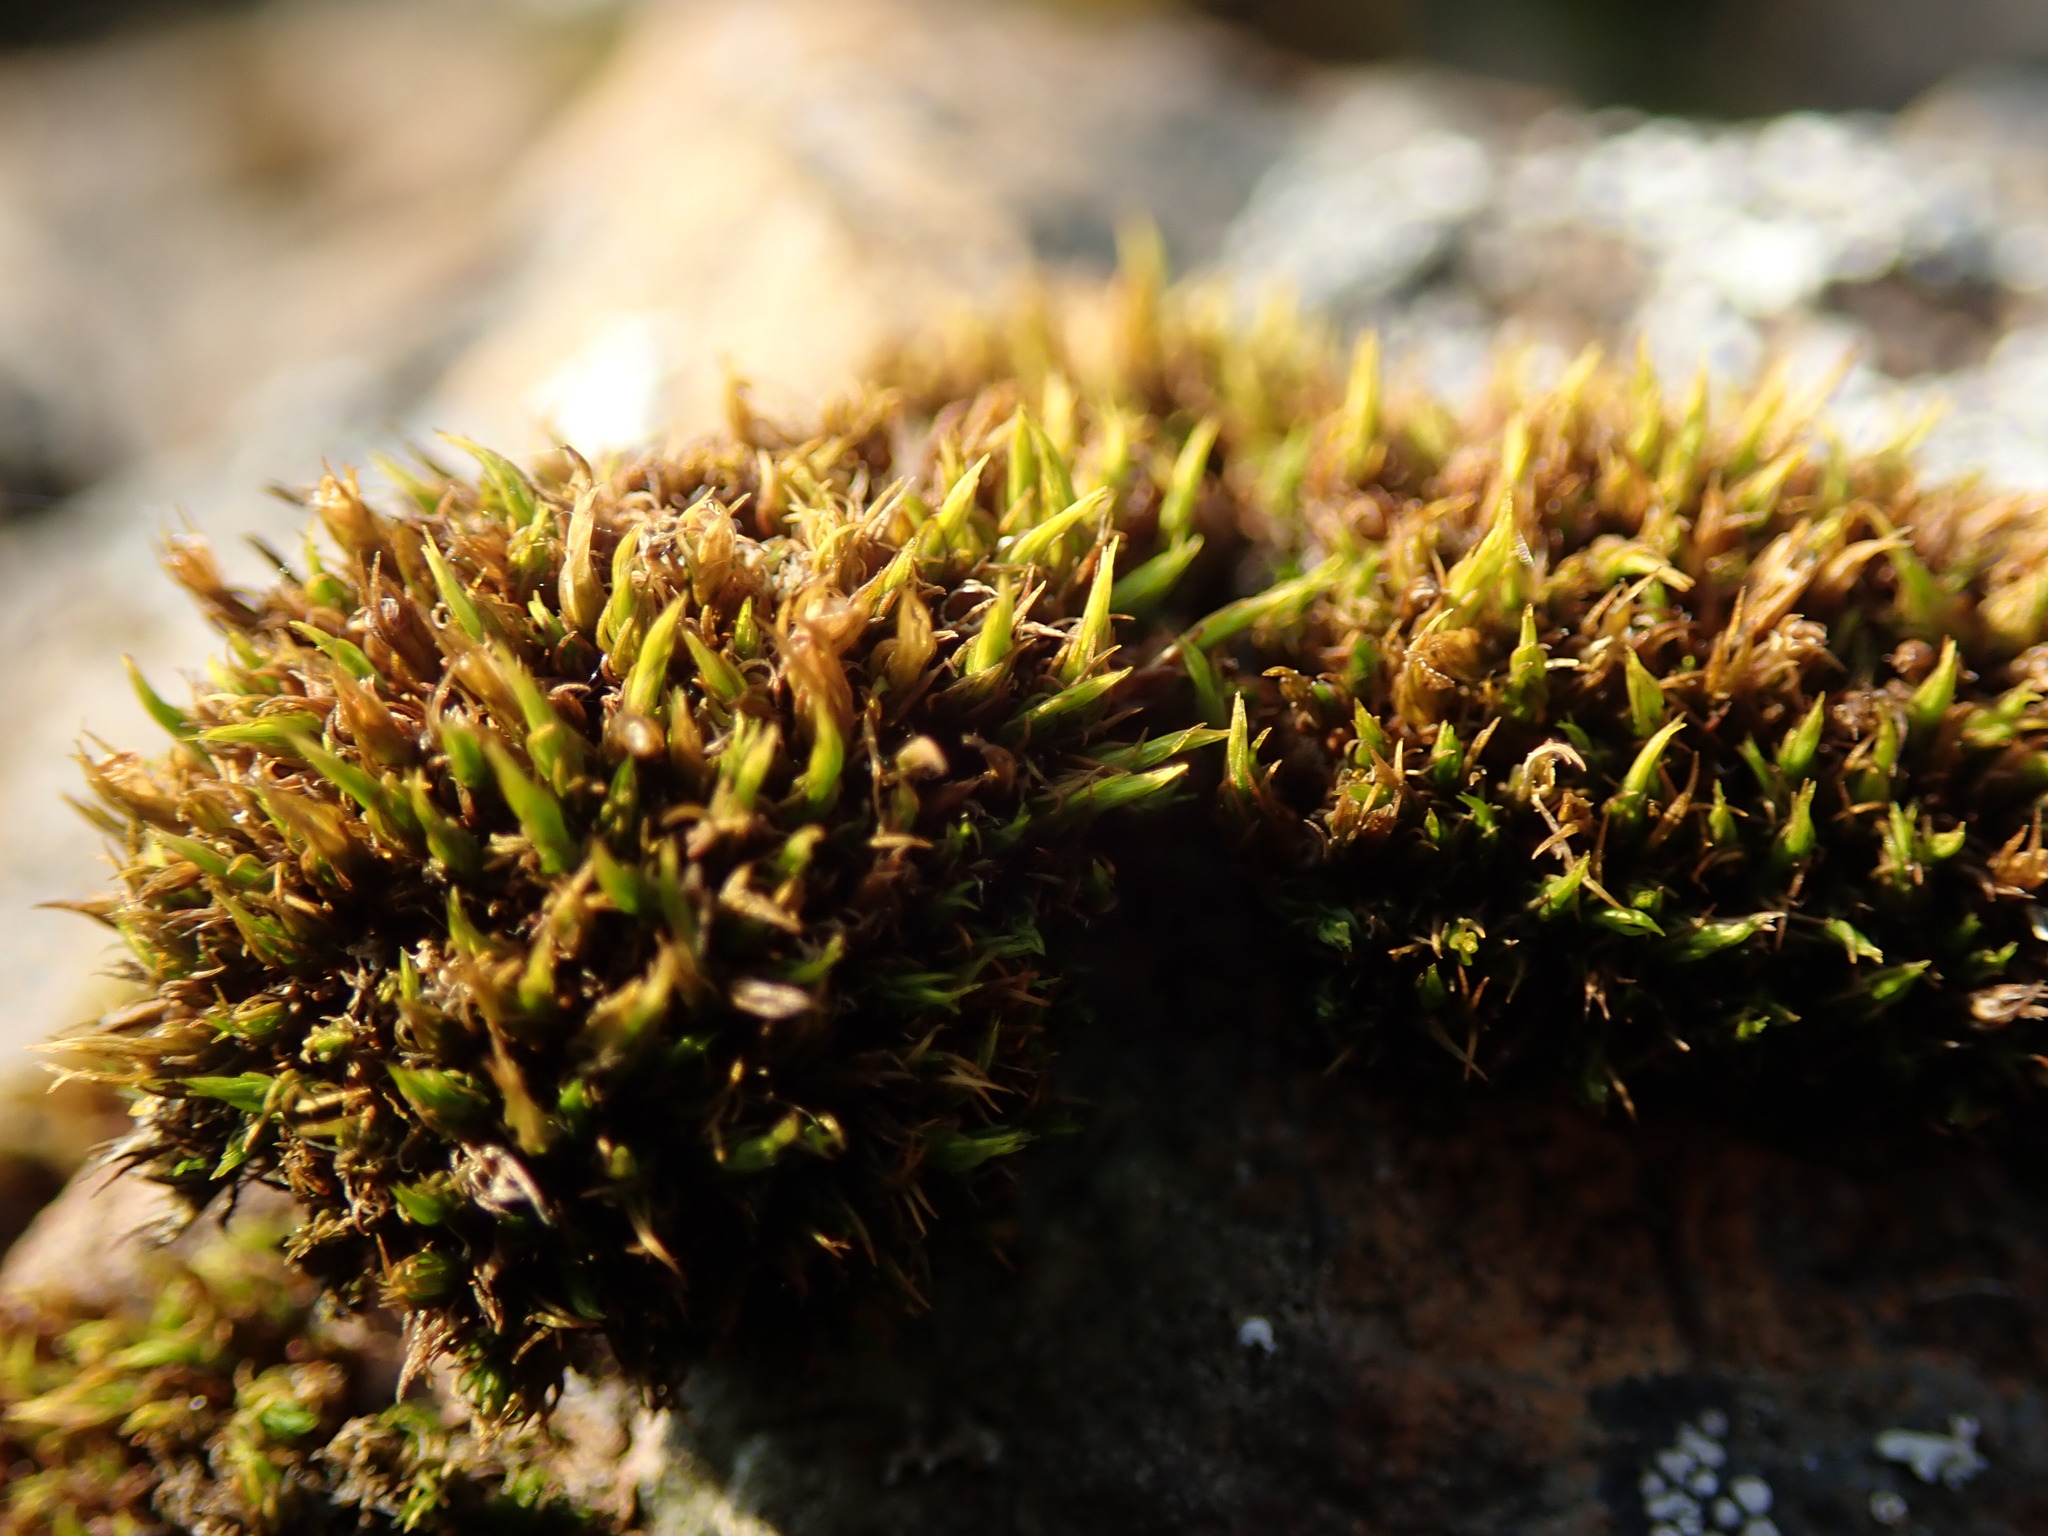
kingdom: Plantae
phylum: Bryophyta
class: Bryopsida
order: Grimmiales
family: Grimmiaceae
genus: Schistidium
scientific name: Schistidium maritimum
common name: Seaside bloom moss
